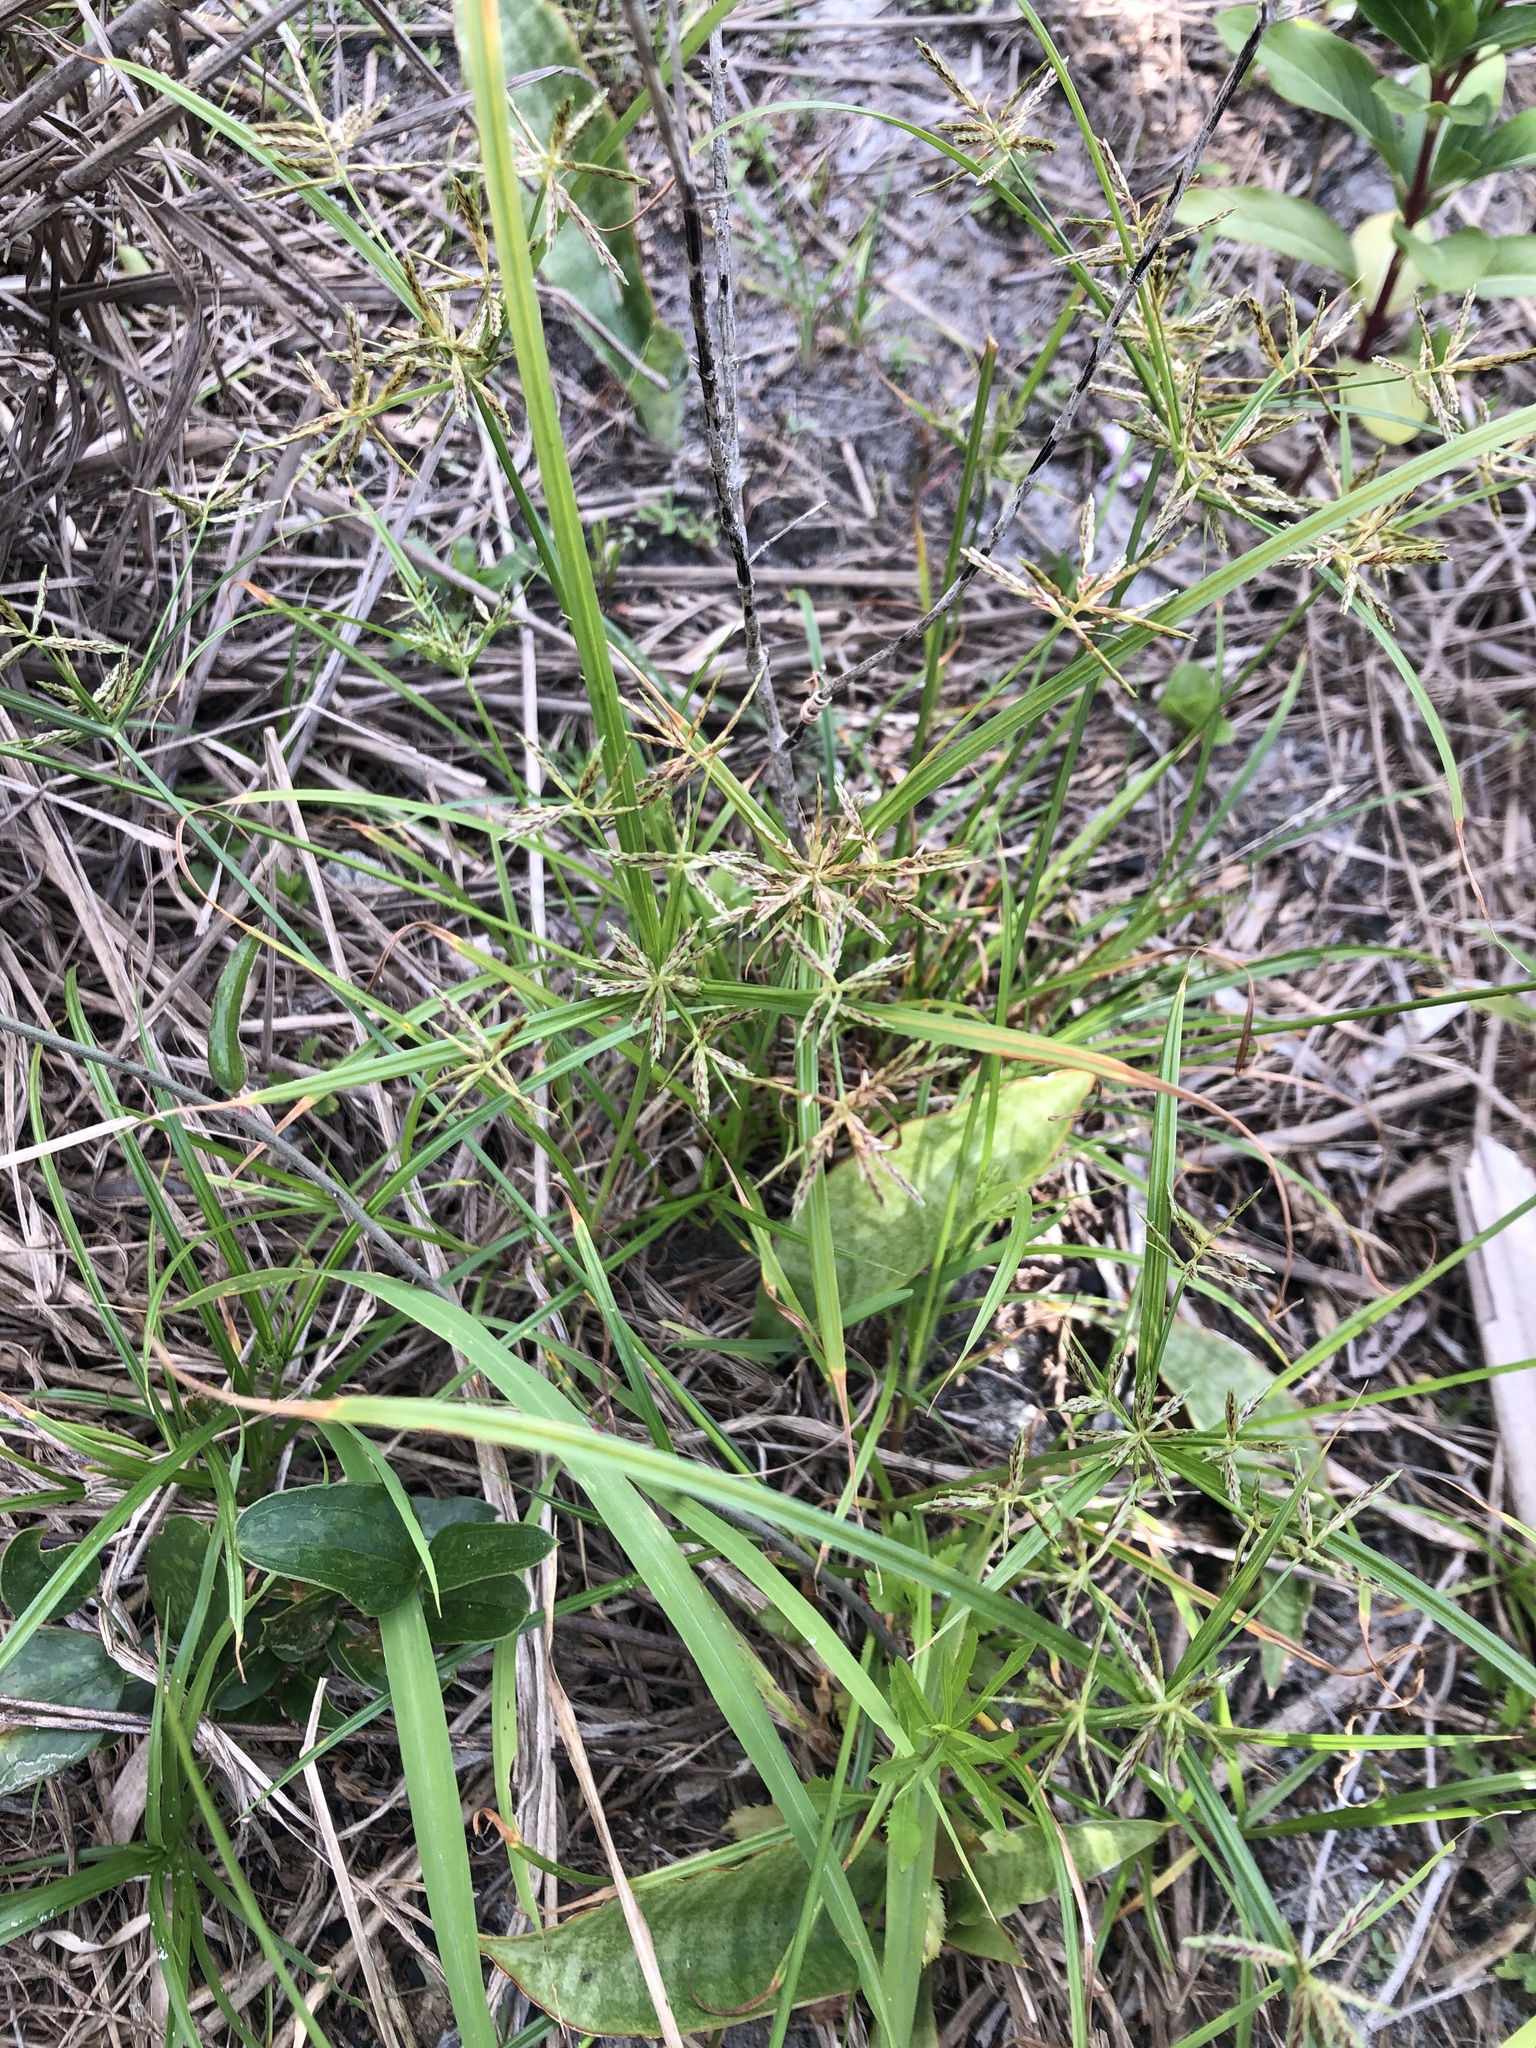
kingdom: Plantae
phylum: Tracheophyta
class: Liliopsida
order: Poales
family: Cyperaceae
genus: Cyperus
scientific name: Cyperus sphacelatus
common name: Roadside flatsedge
